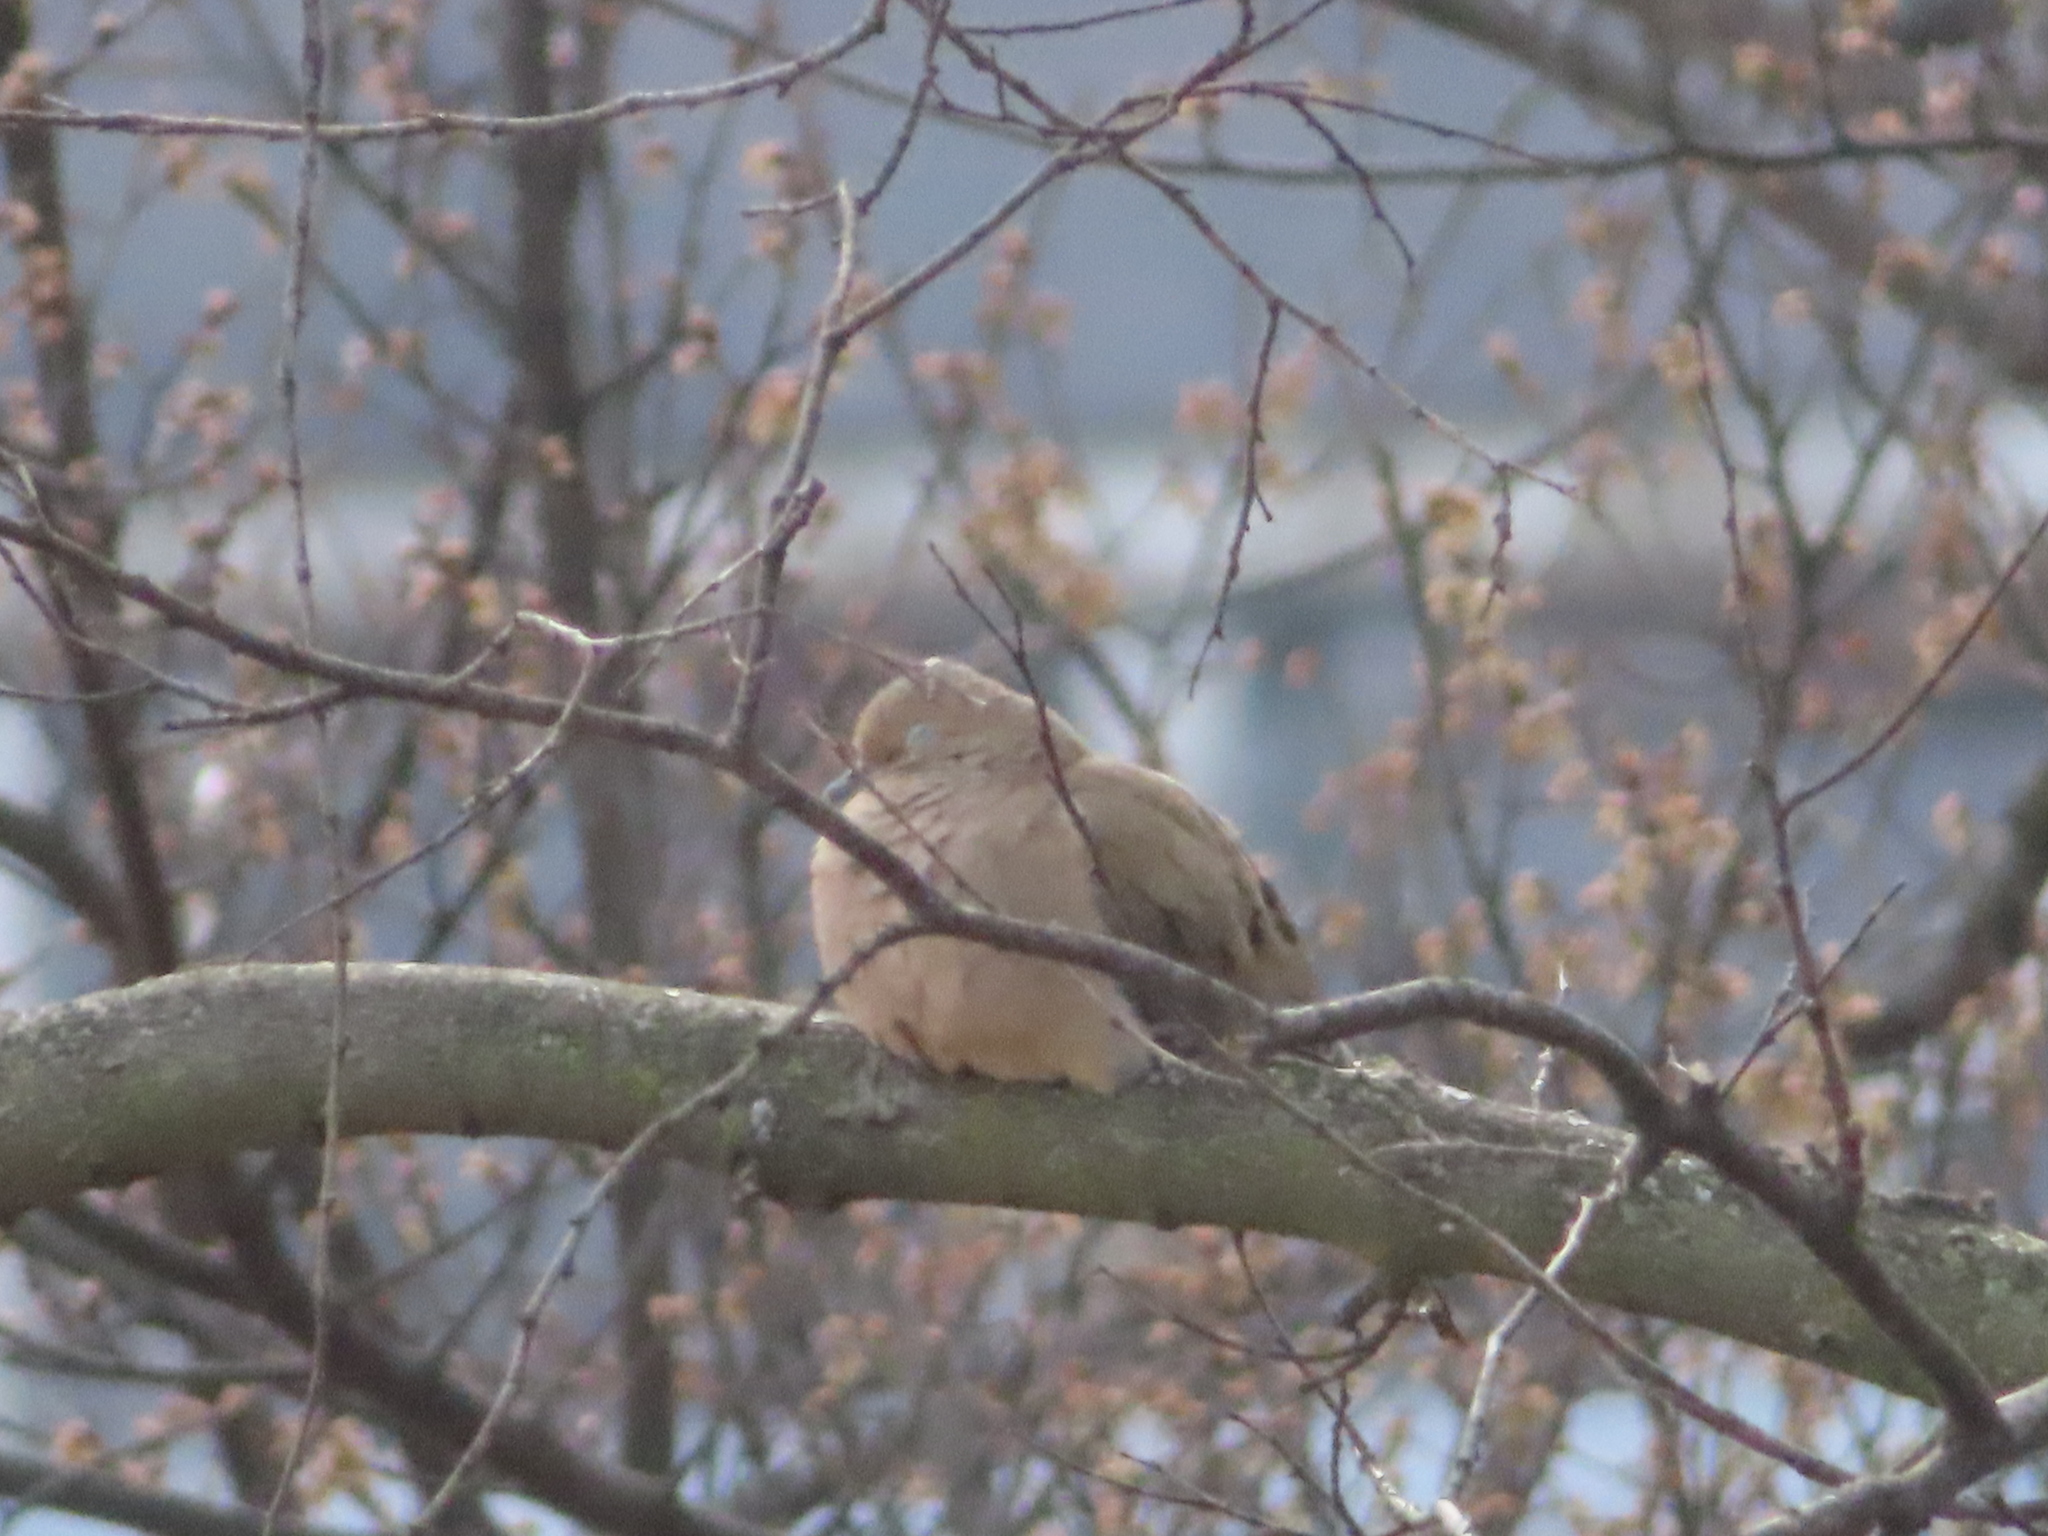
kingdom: Animalia
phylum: Chordata
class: Aves
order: Columbiformes
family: Columbidae
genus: Zenaida
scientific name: Zenaida macroura
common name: Mourning dove
